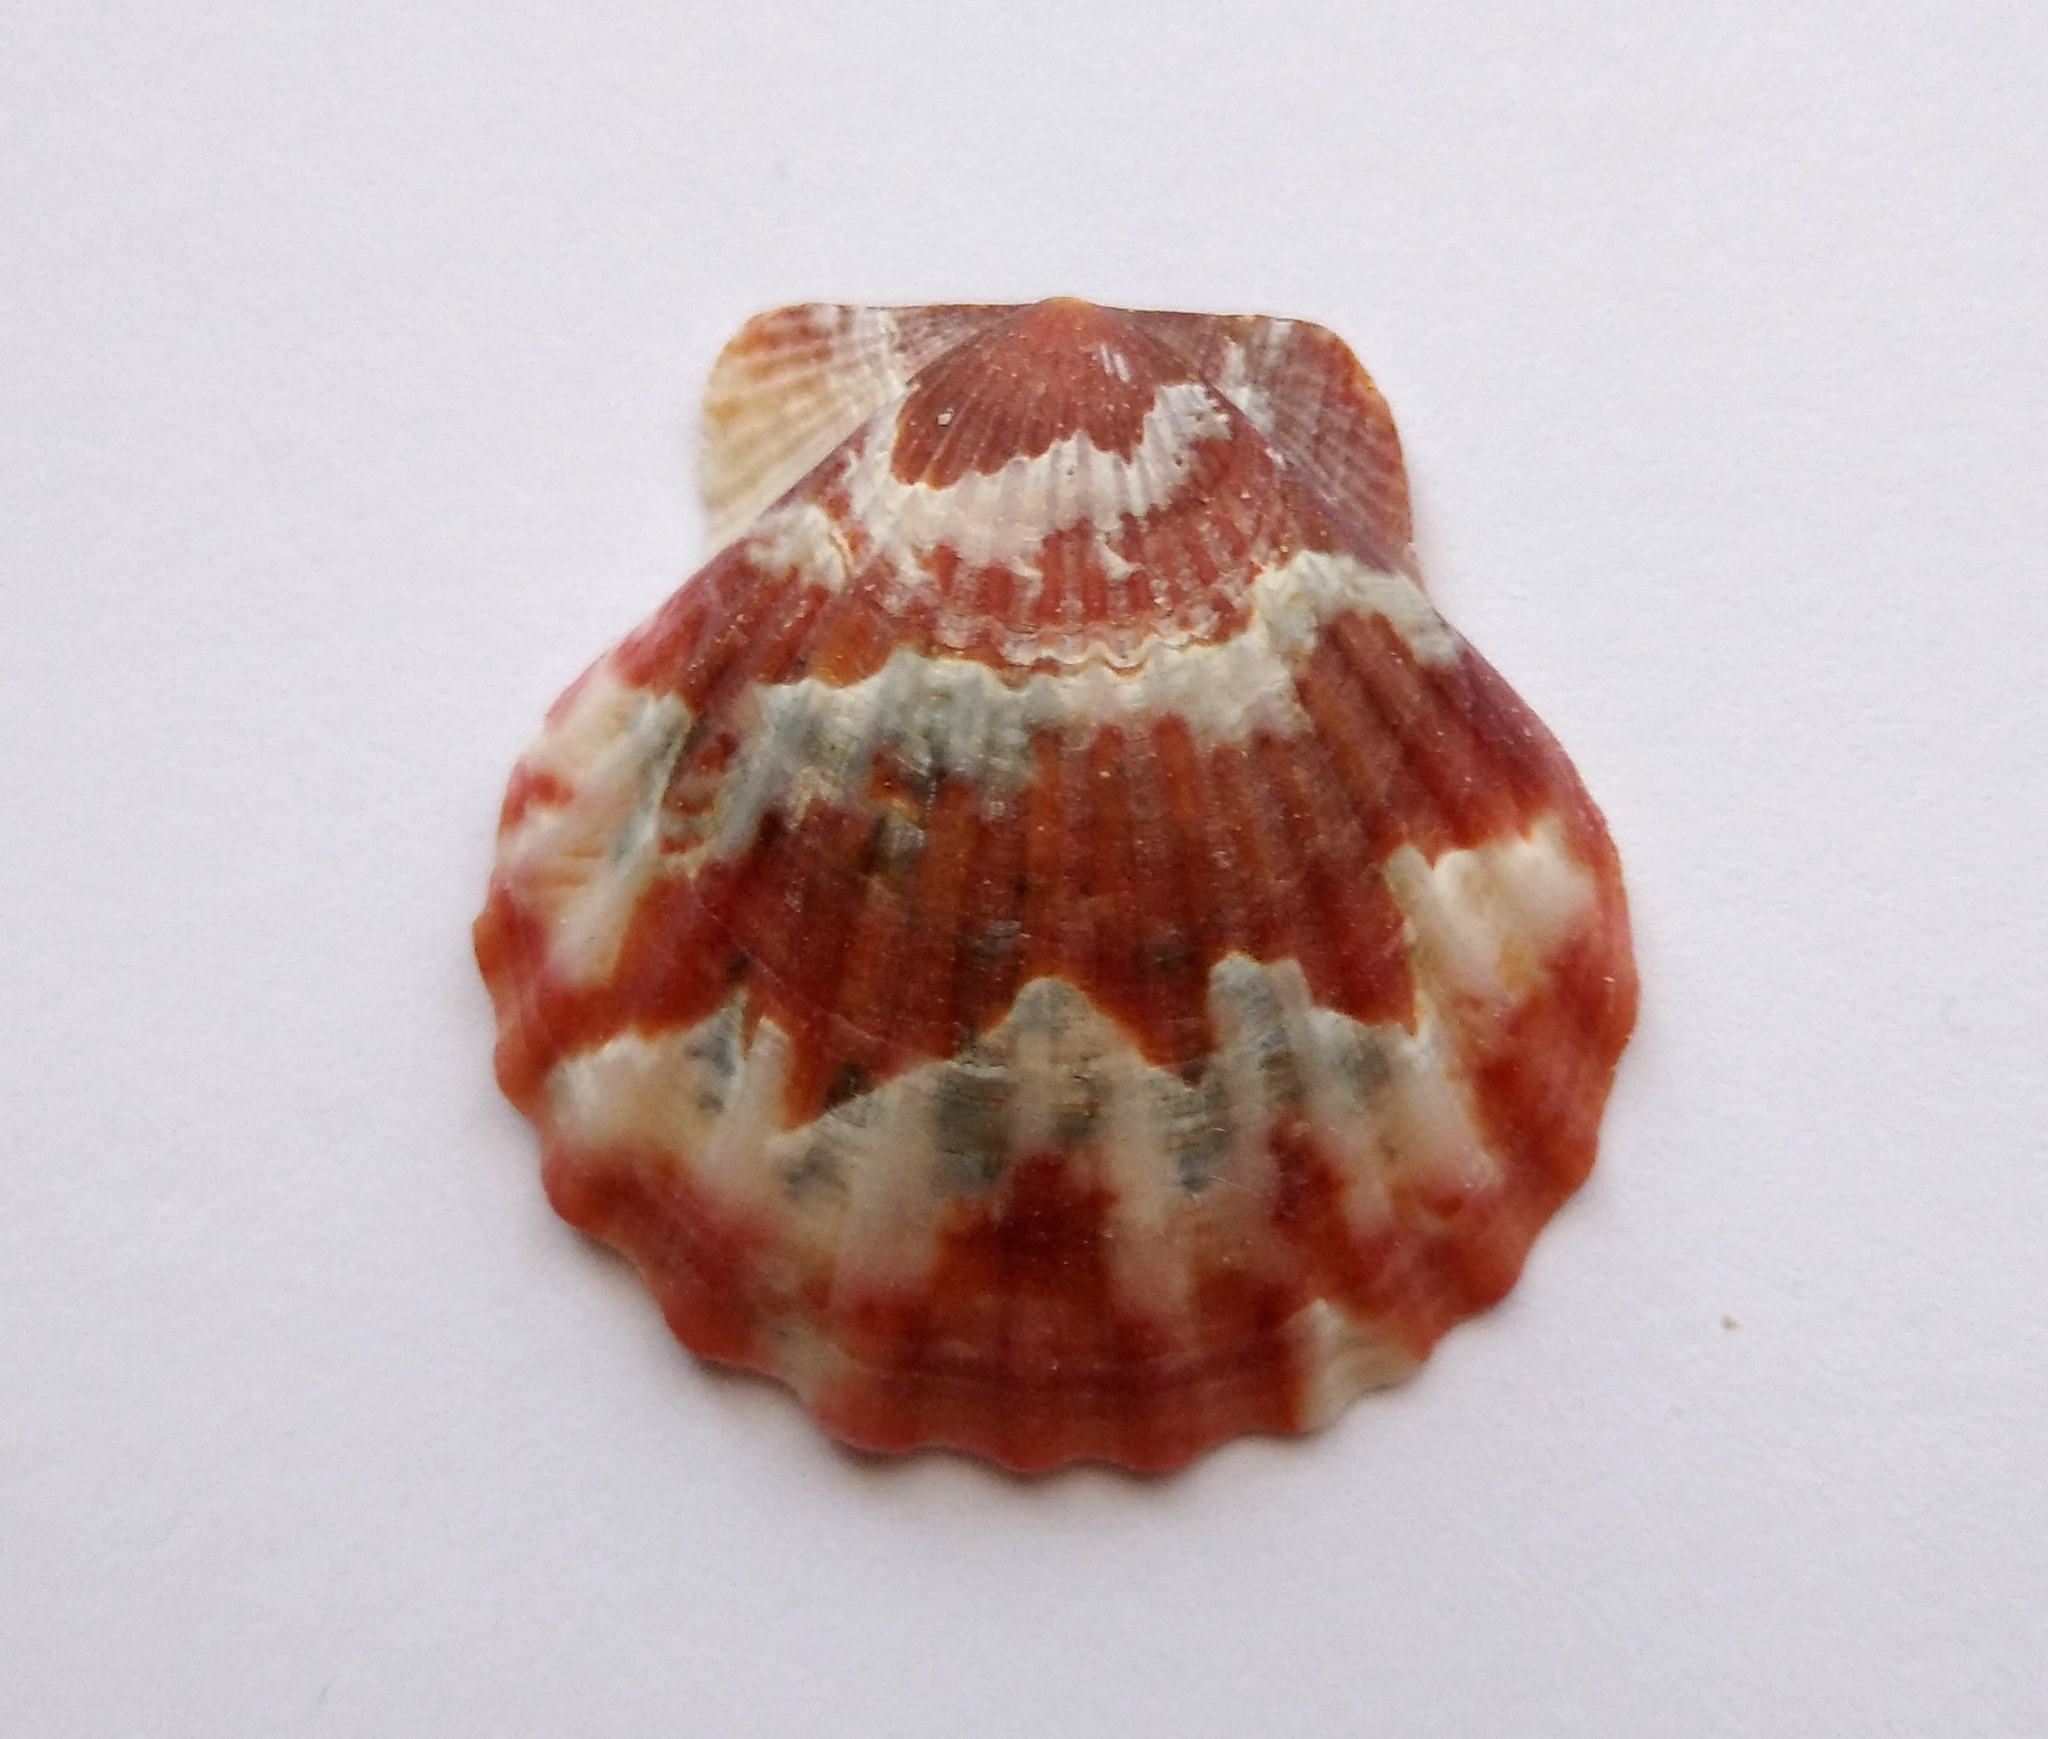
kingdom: Animalia
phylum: Mollusca
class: Bivalvia
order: Pectinida
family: Pectinidae
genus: Flexopecten
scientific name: Flexopecten glaber
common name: Smooth scallop
